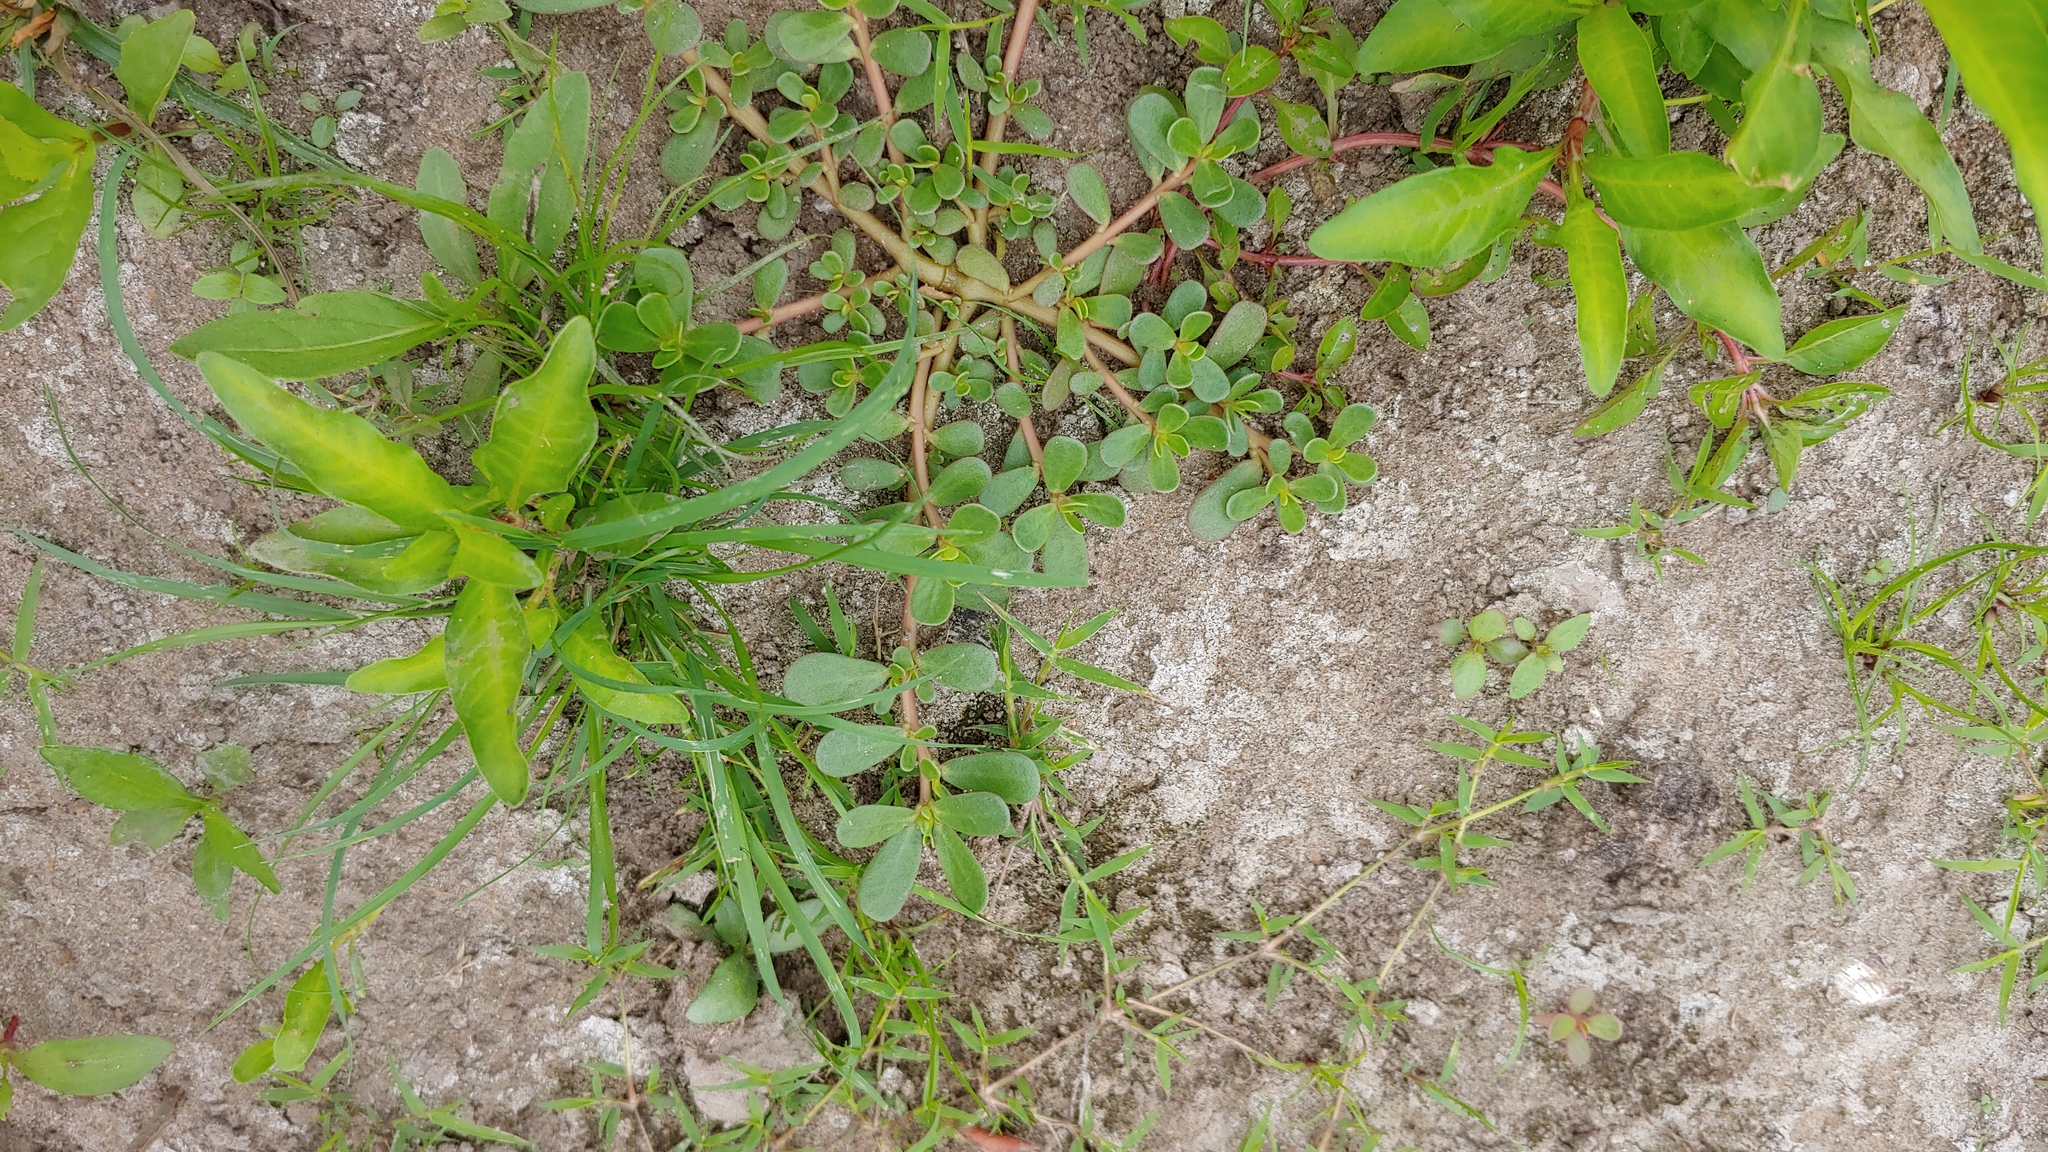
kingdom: Plantae
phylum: Tracheophyta
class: Magnoliopsida
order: Caryophyllales
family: Portulacaceae
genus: Portulaca
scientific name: Portulaca oleracea
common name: Common purslane
